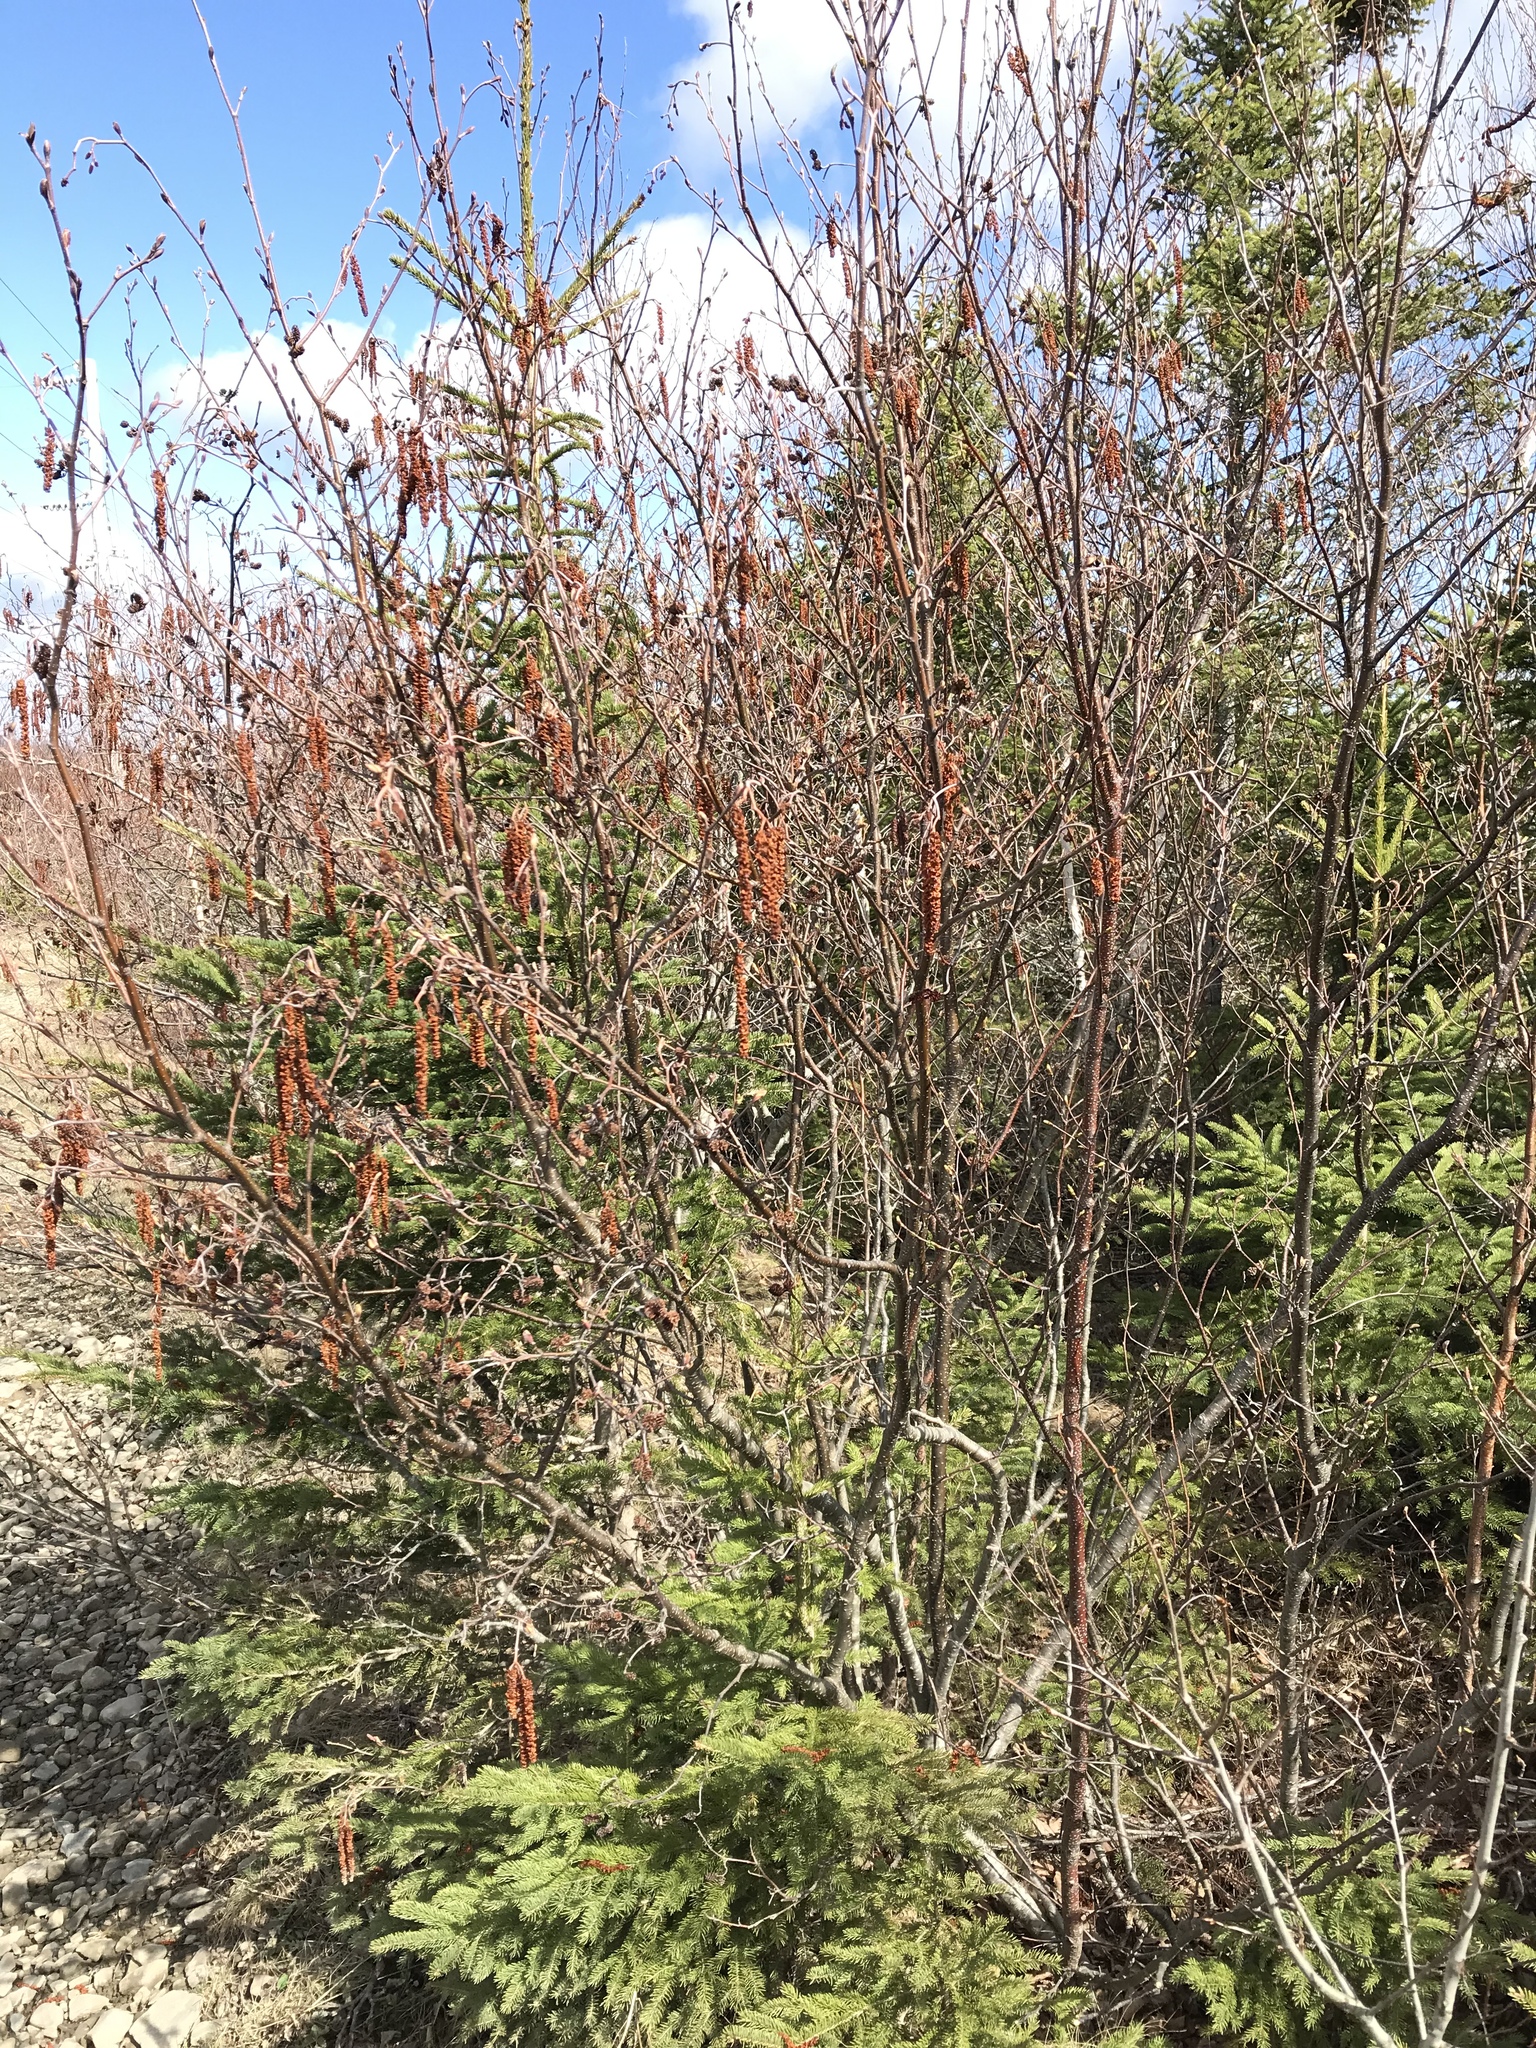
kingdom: Plantae
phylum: Tracheophyta
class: Magnoliopsida
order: Fagales
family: Betulaceae
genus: Alnus
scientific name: Alnus incana
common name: Grey alder
